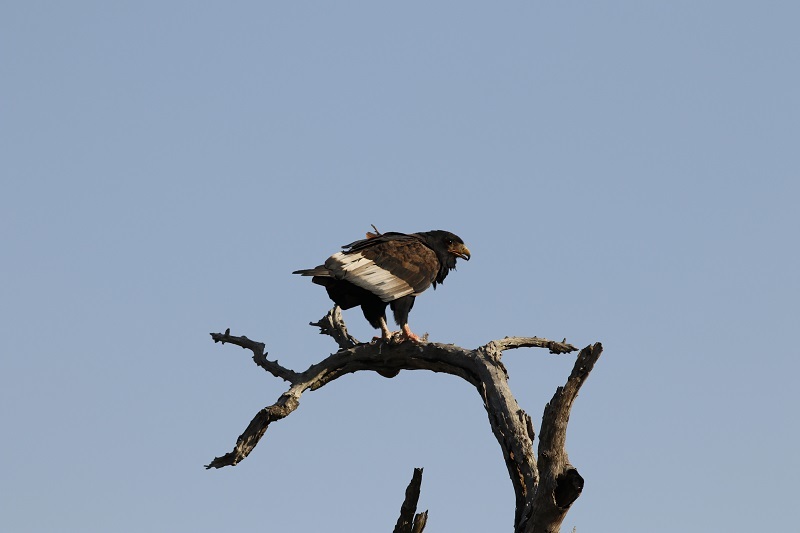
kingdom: Animalia
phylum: Chordata
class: Aves
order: Accipitriformes
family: Accipitridae
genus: Terathopius
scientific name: Terathopius ecaudatus
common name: Bateleur
